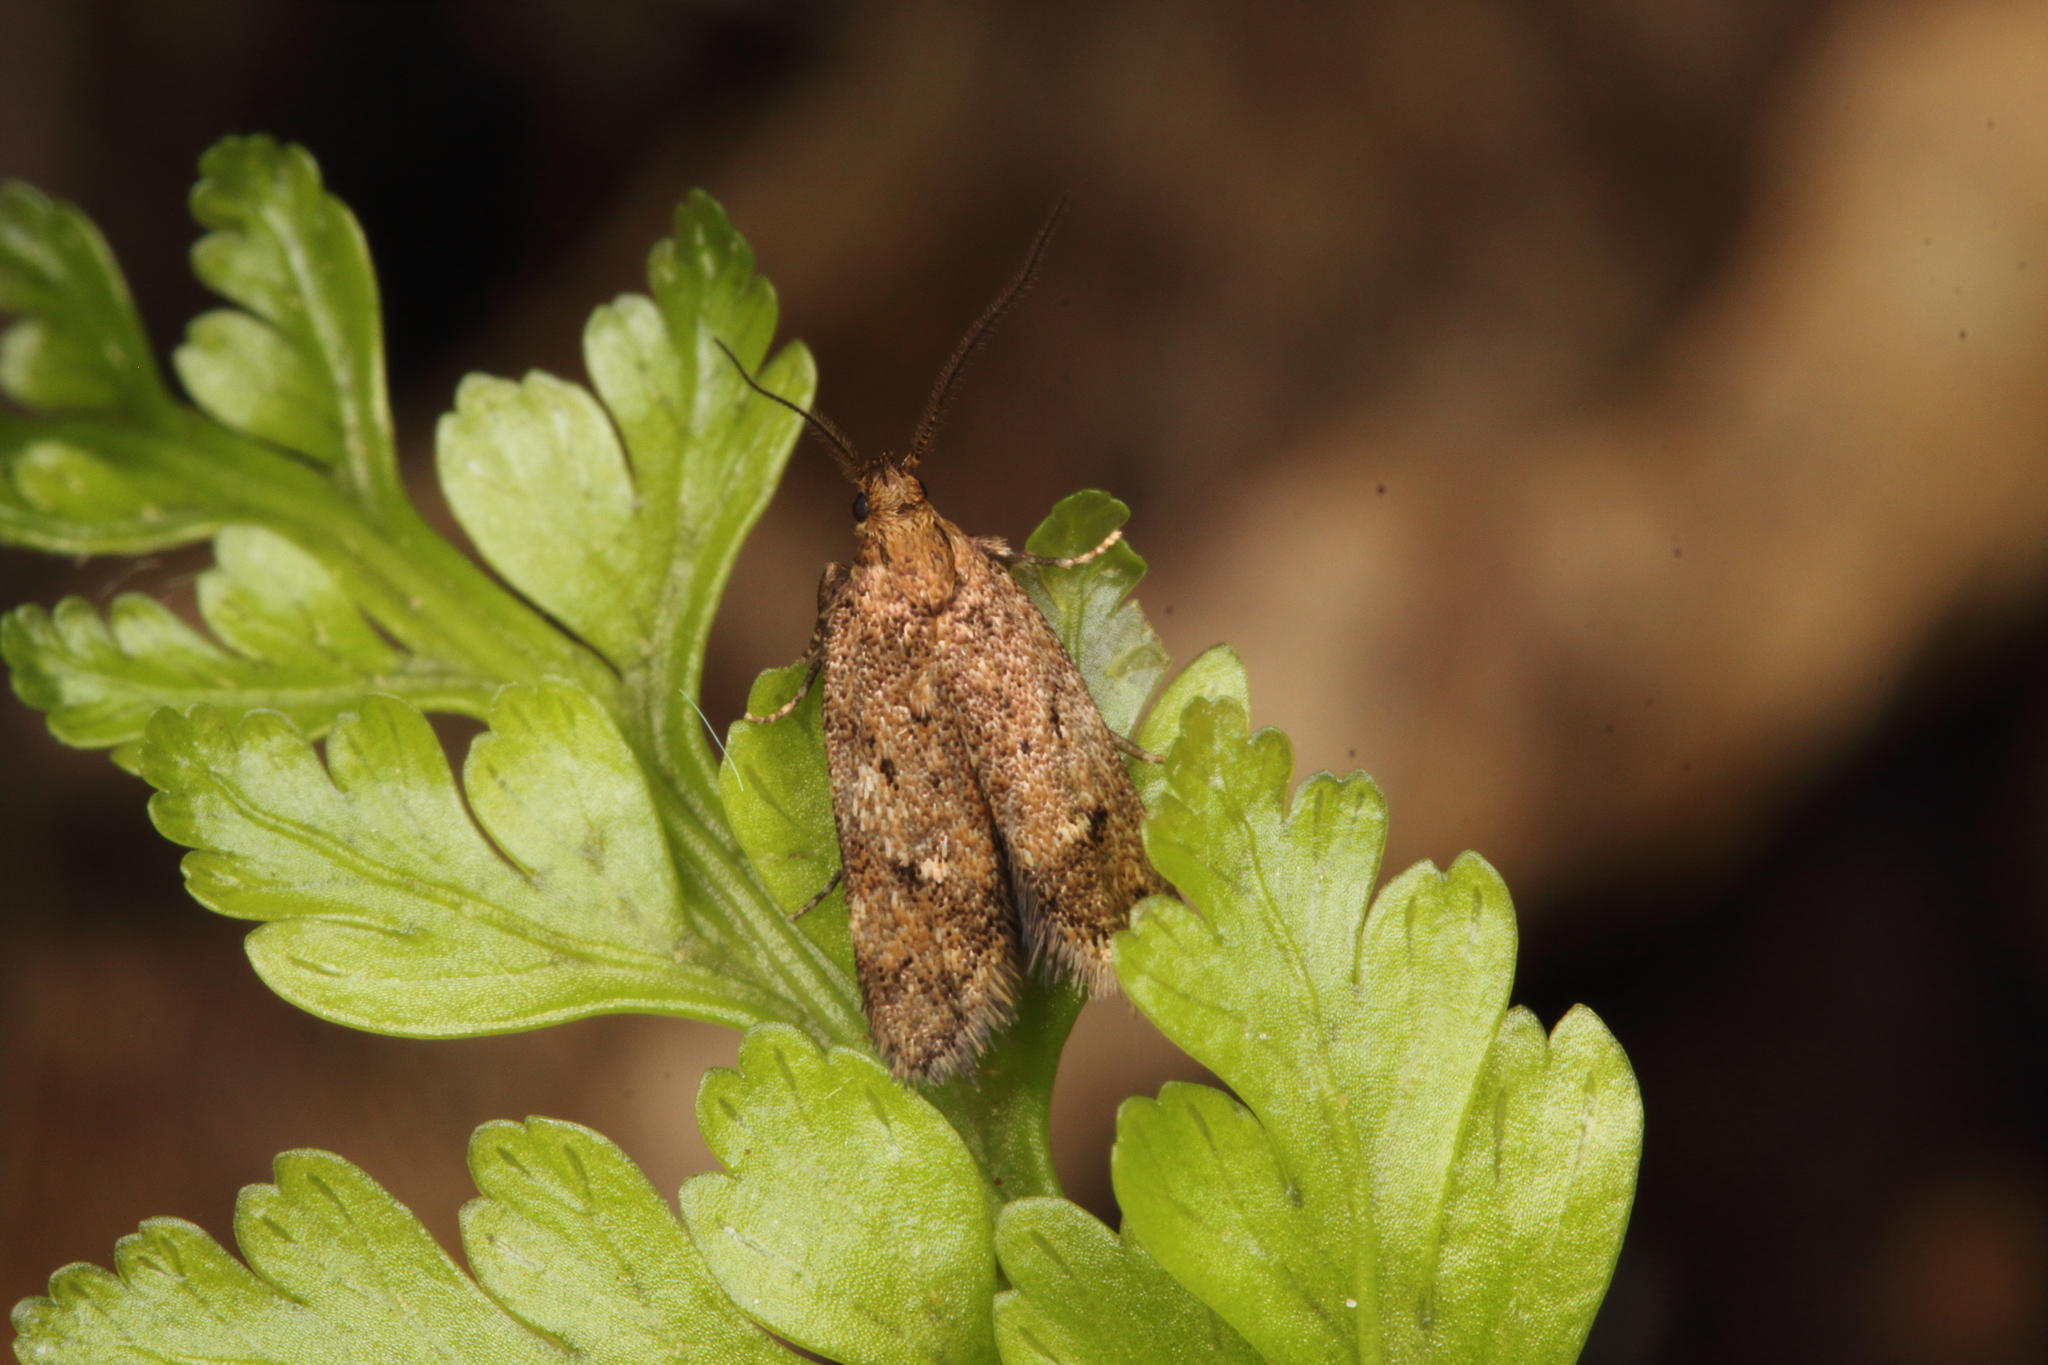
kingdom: Animalia
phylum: Arthropoda
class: Insecta
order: Lepidoptera
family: Oecophoridae
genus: Tingena
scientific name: Tingena fenestrata
